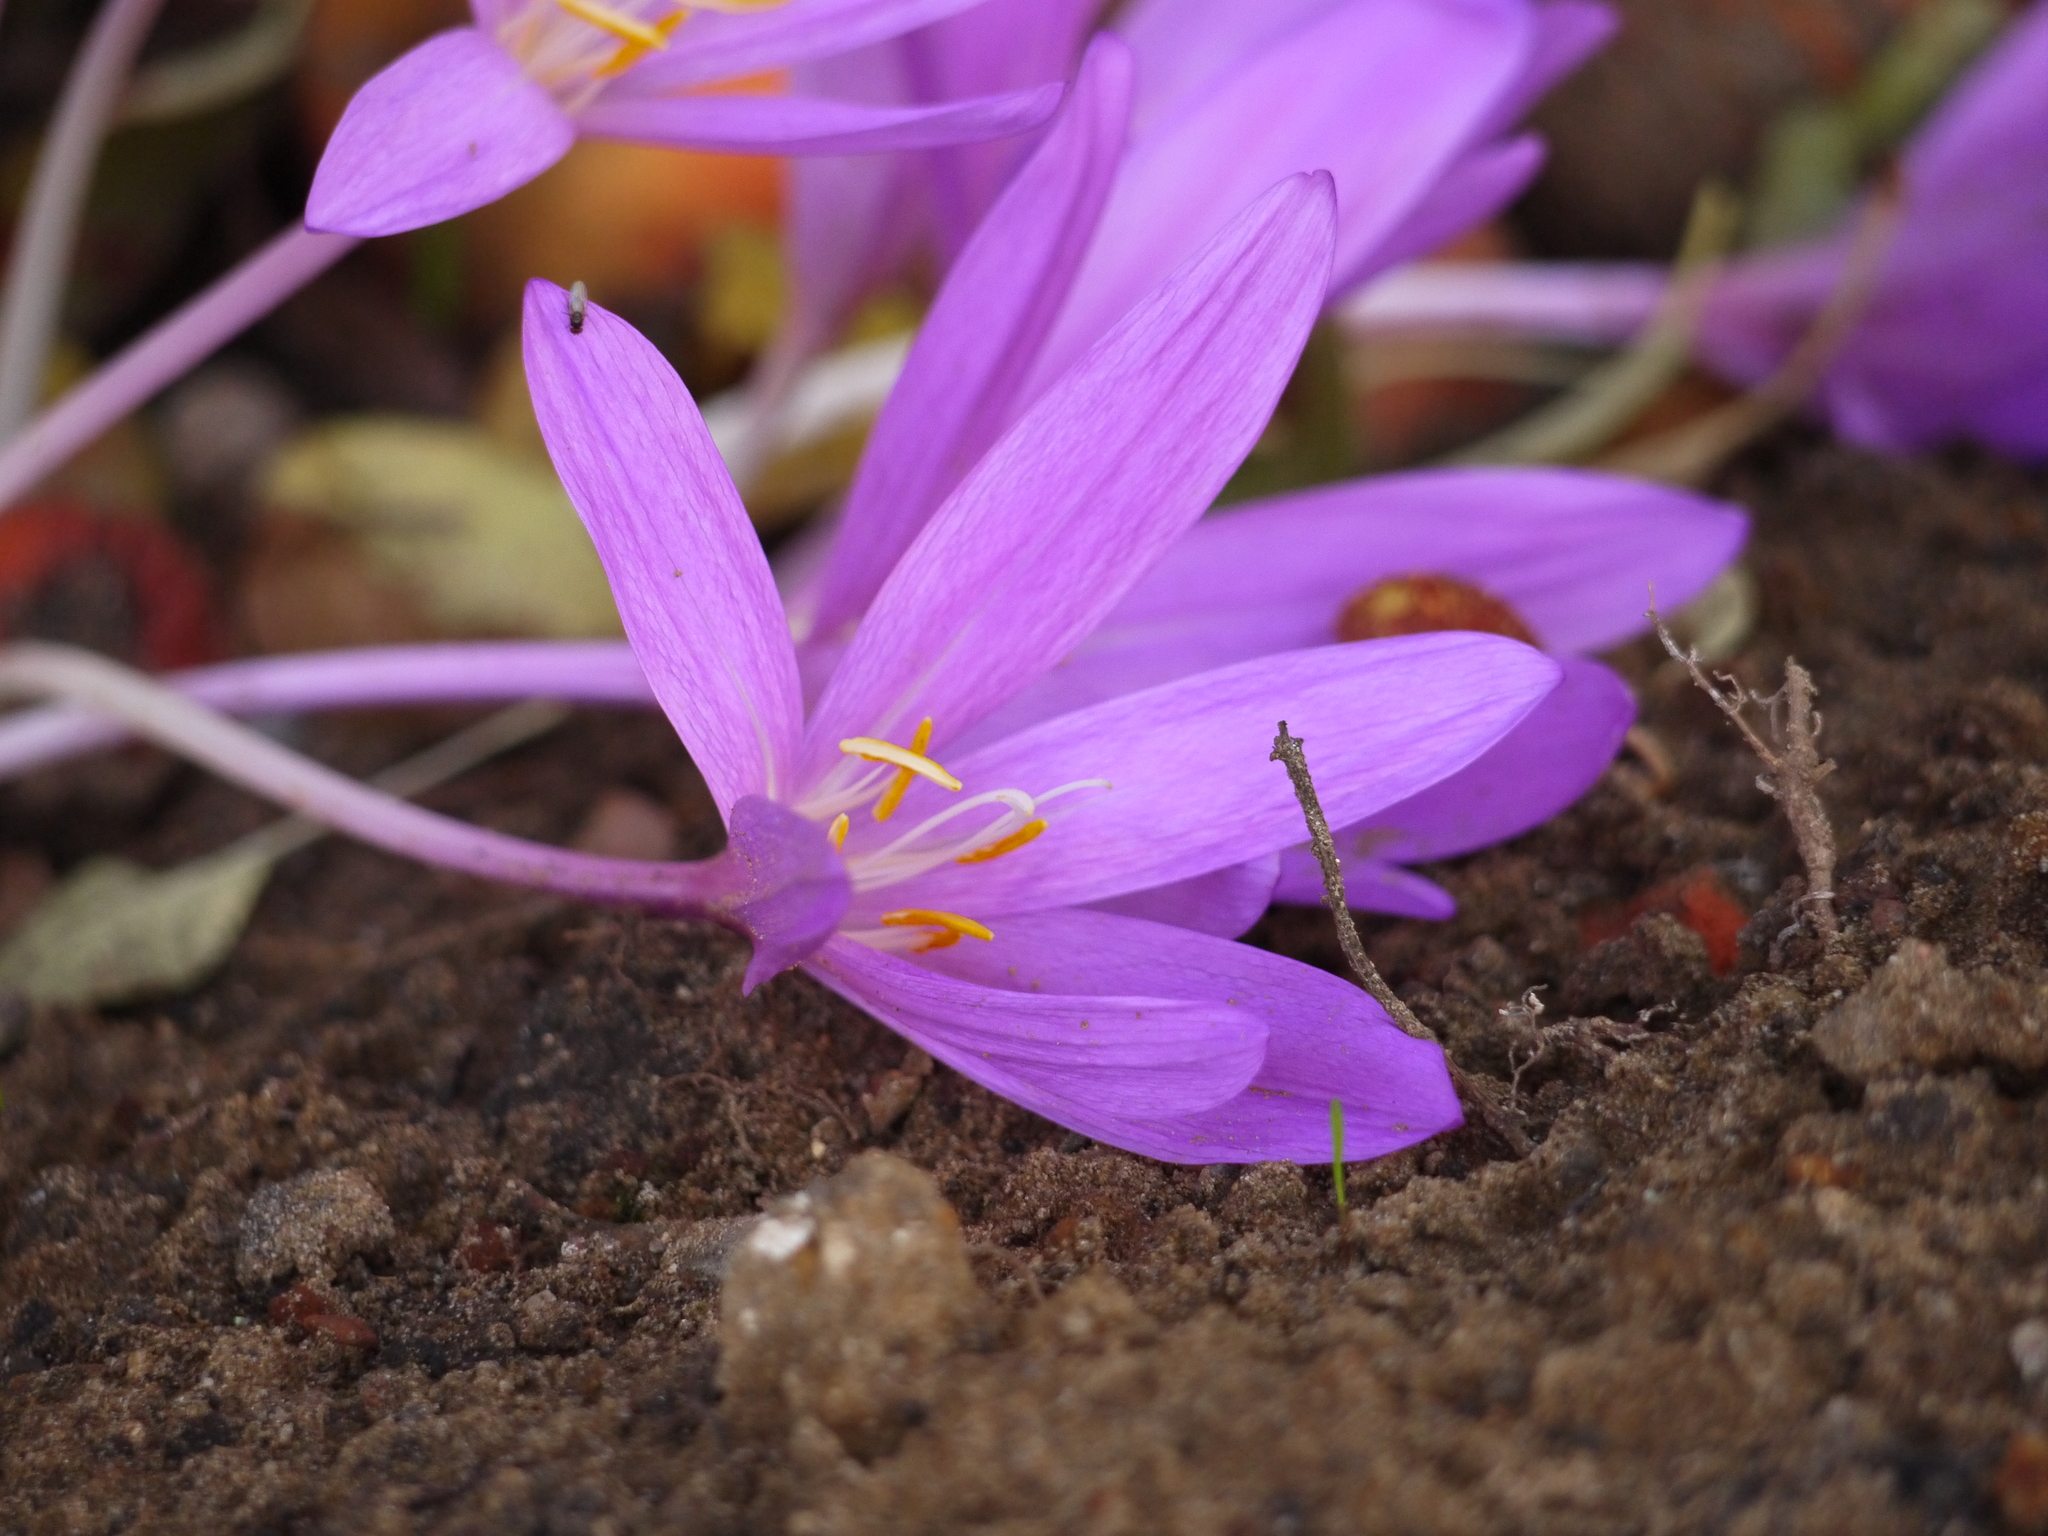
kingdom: Plantae
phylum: Tracheophyta
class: Liliopsida
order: Liliales
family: Colchicaceae
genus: Colchicum
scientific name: Colchicum autumnale
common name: Autumn crocus
